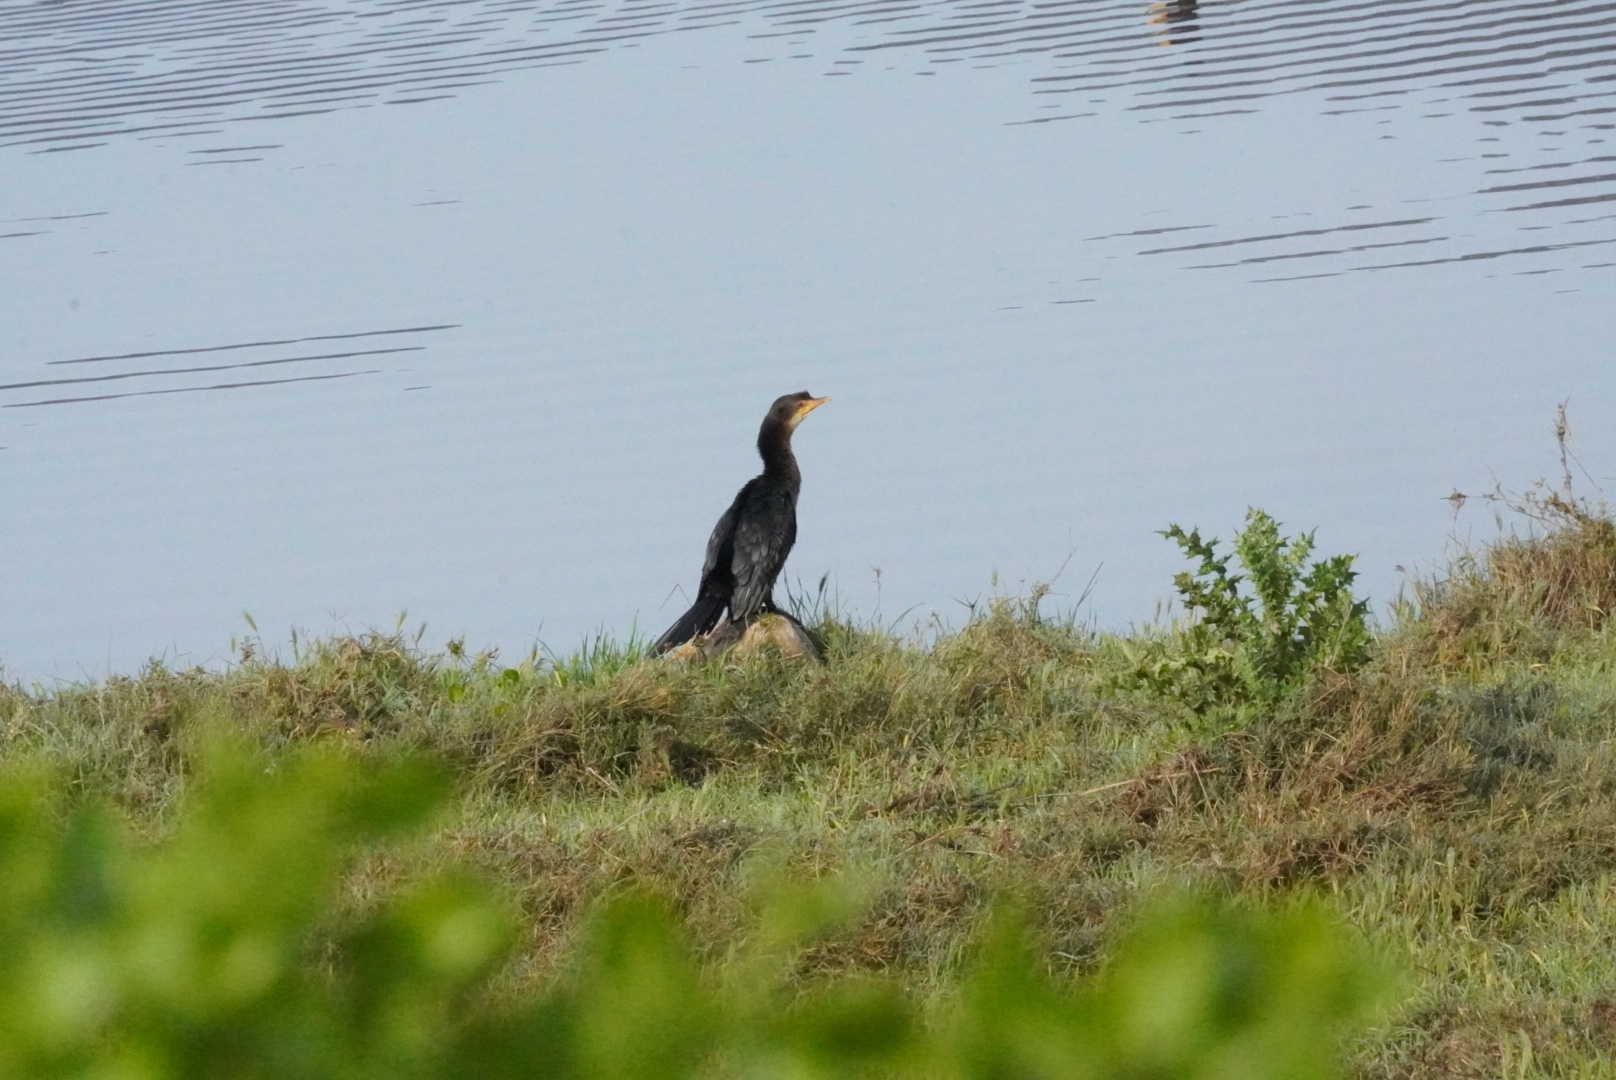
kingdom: Animalia
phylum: Chordata
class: Aves
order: Suliformes
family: Phalacrocoracidae
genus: Microcarbo
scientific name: Microcarbo africanus
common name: Long-tailed cormorant
